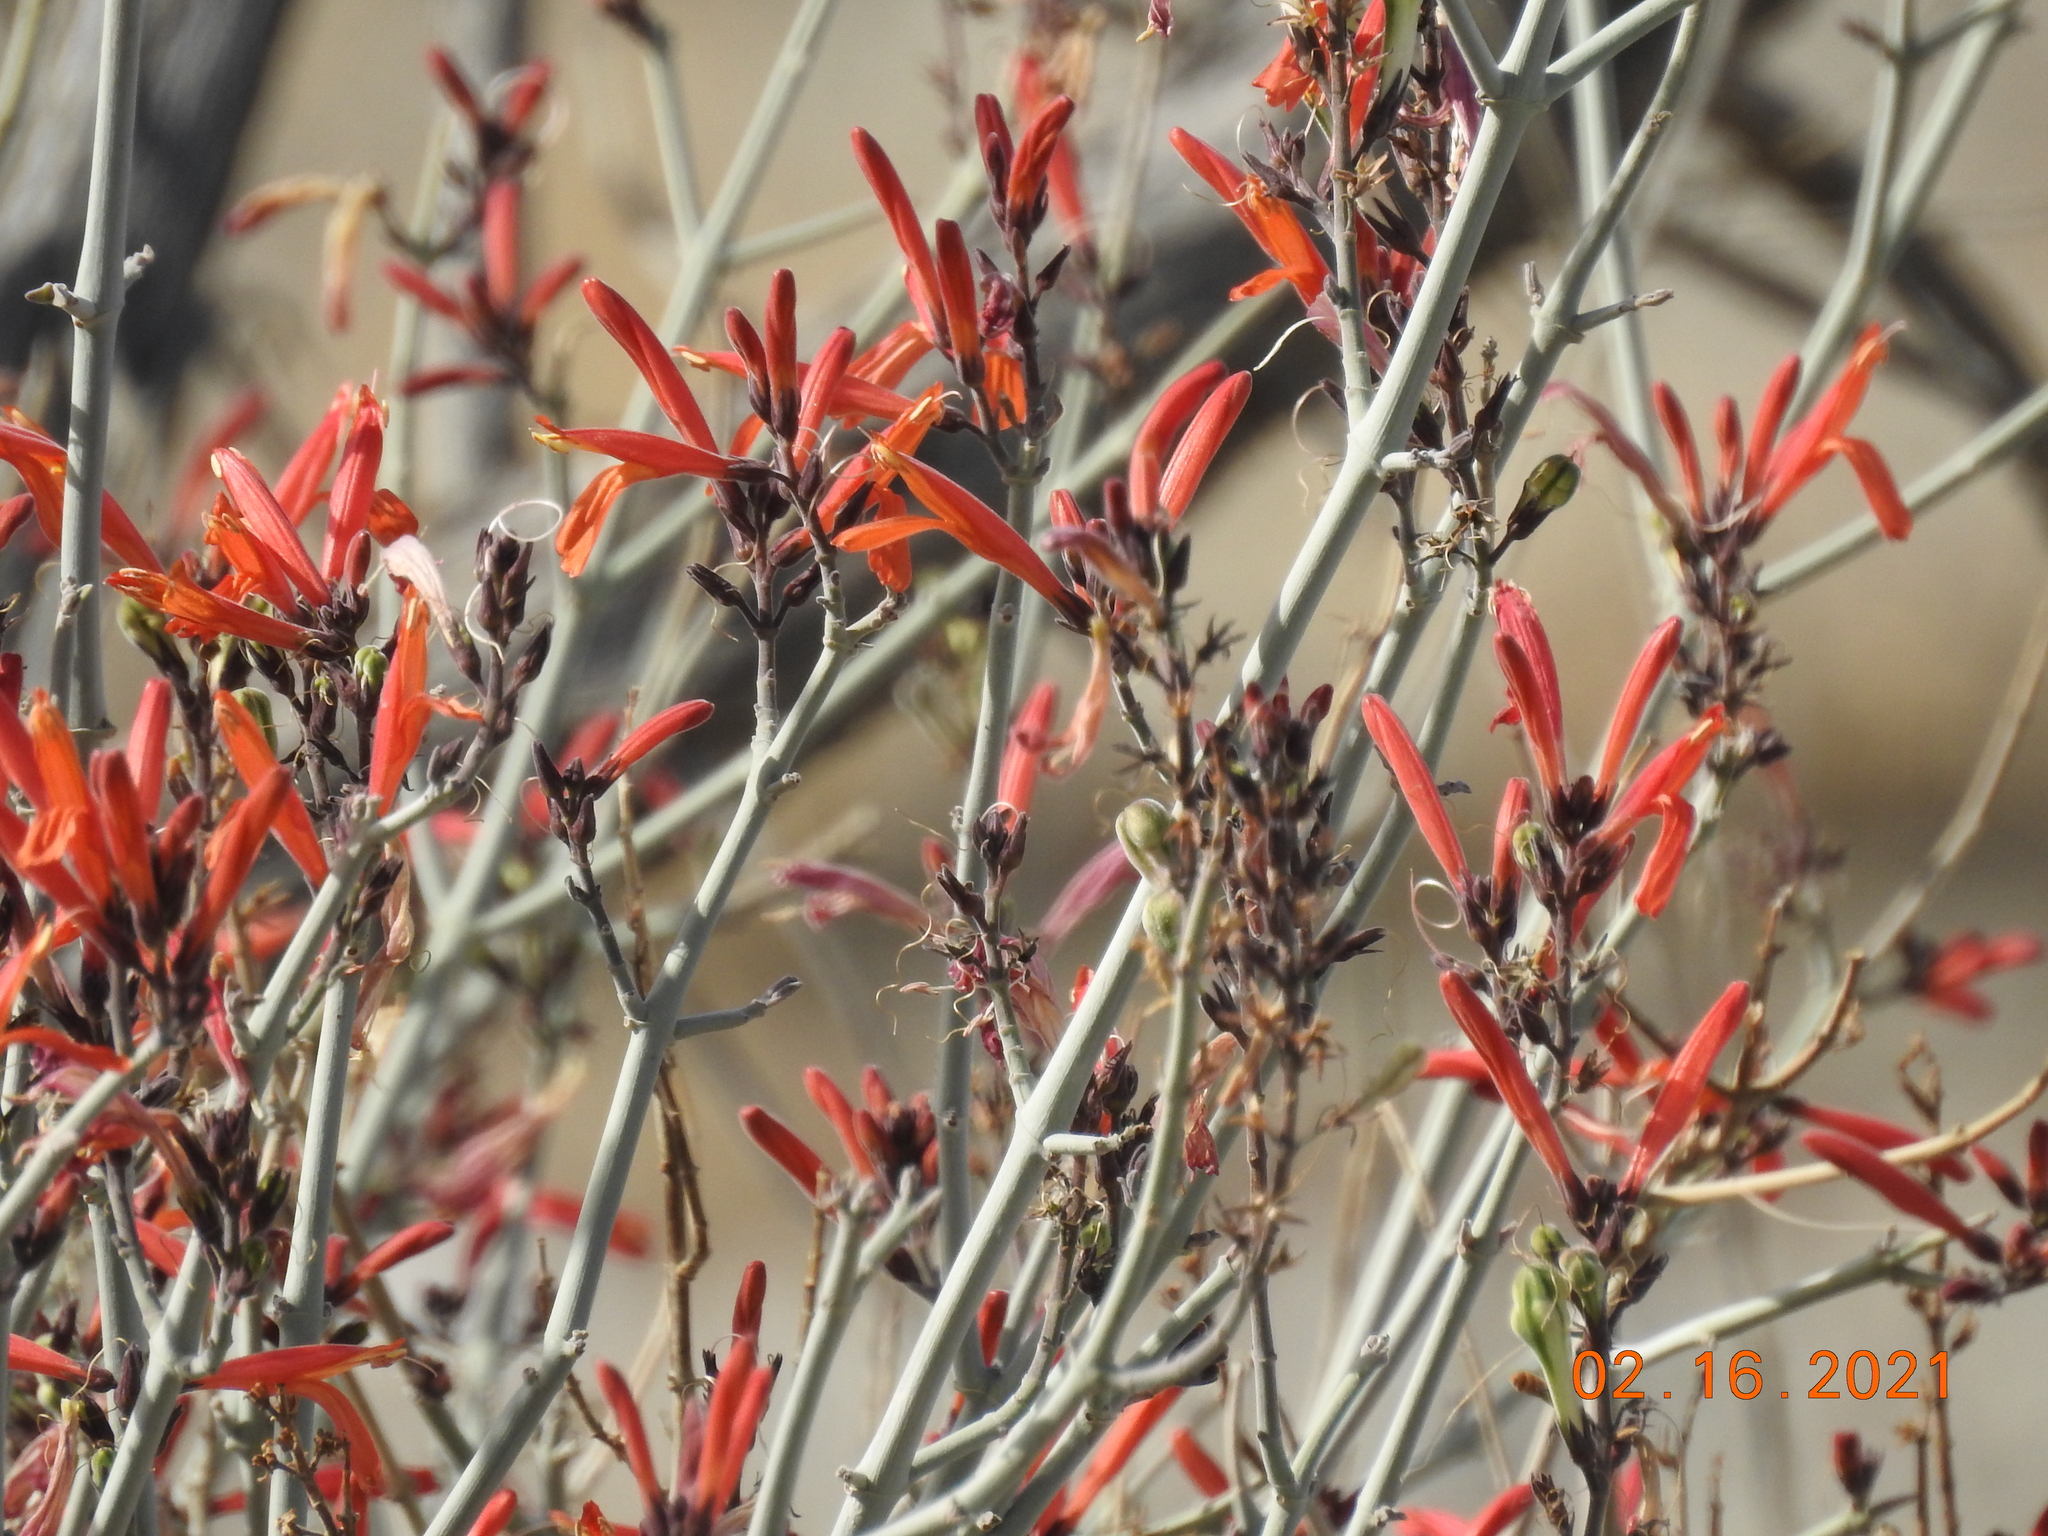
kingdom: Plantae
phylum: Tracheophyta
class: Magnoliopsida
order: Lamiales
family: Acanthaceae
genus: Justicia
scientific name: Justicia californica
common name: Chuparosa-honeysuckle
